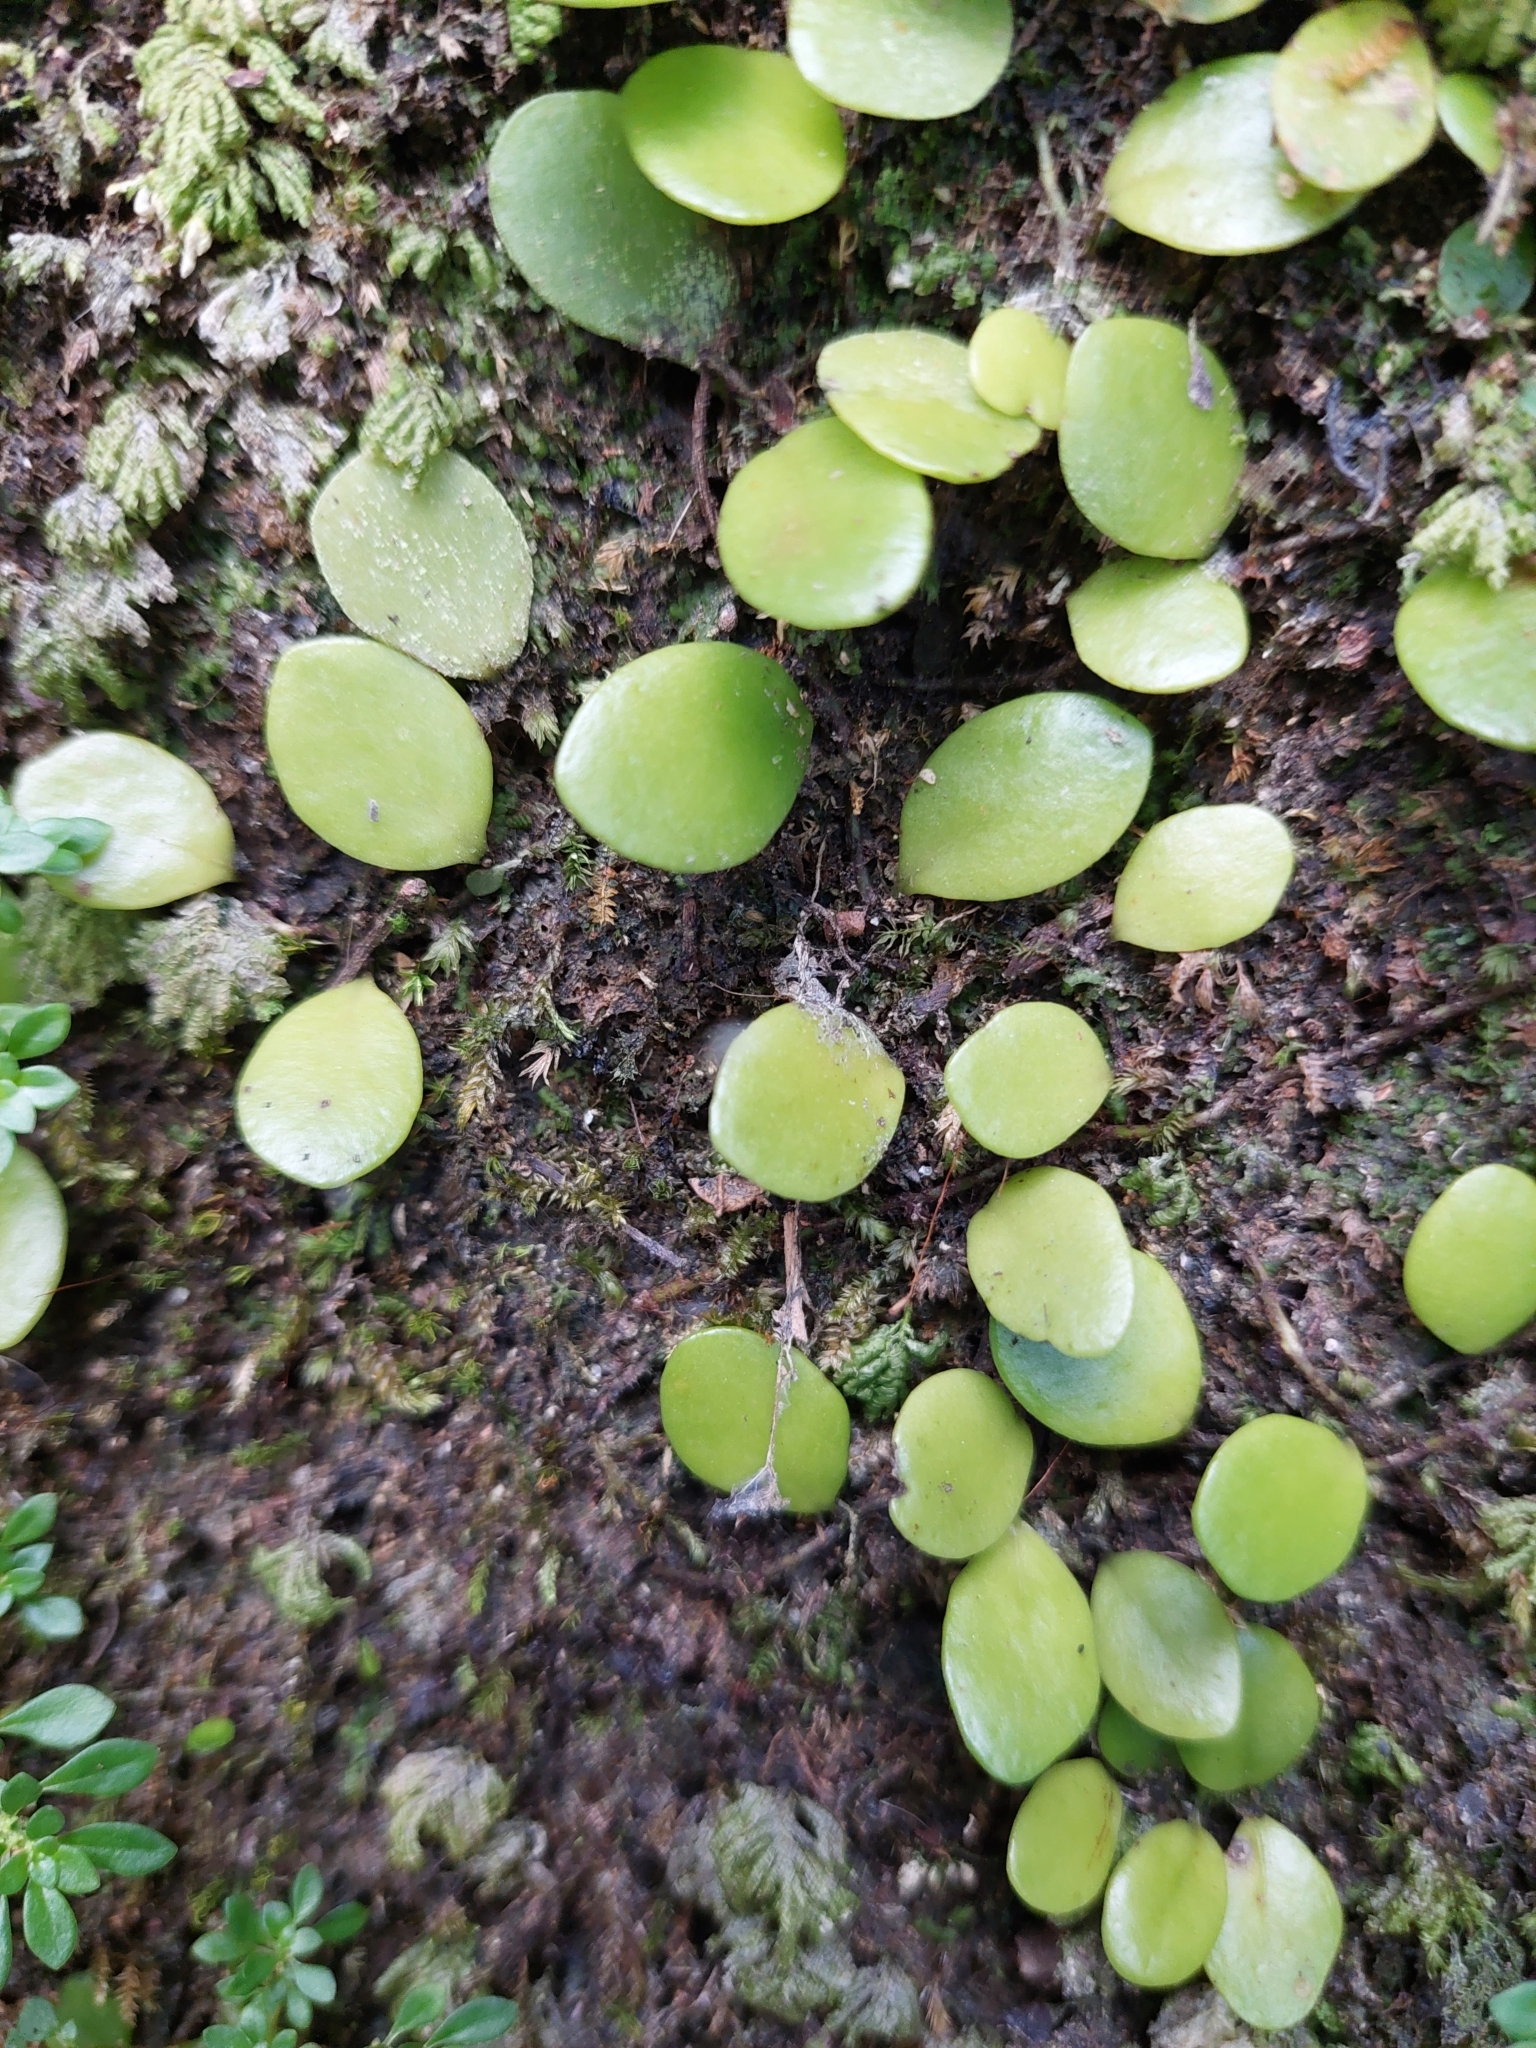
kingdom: Plantae
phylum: Tracheophyta
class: Polypodiopsida
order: Polypodiales
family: Polypodiaceae
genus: Lepisorus
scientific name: Lepisorus microphyllus
